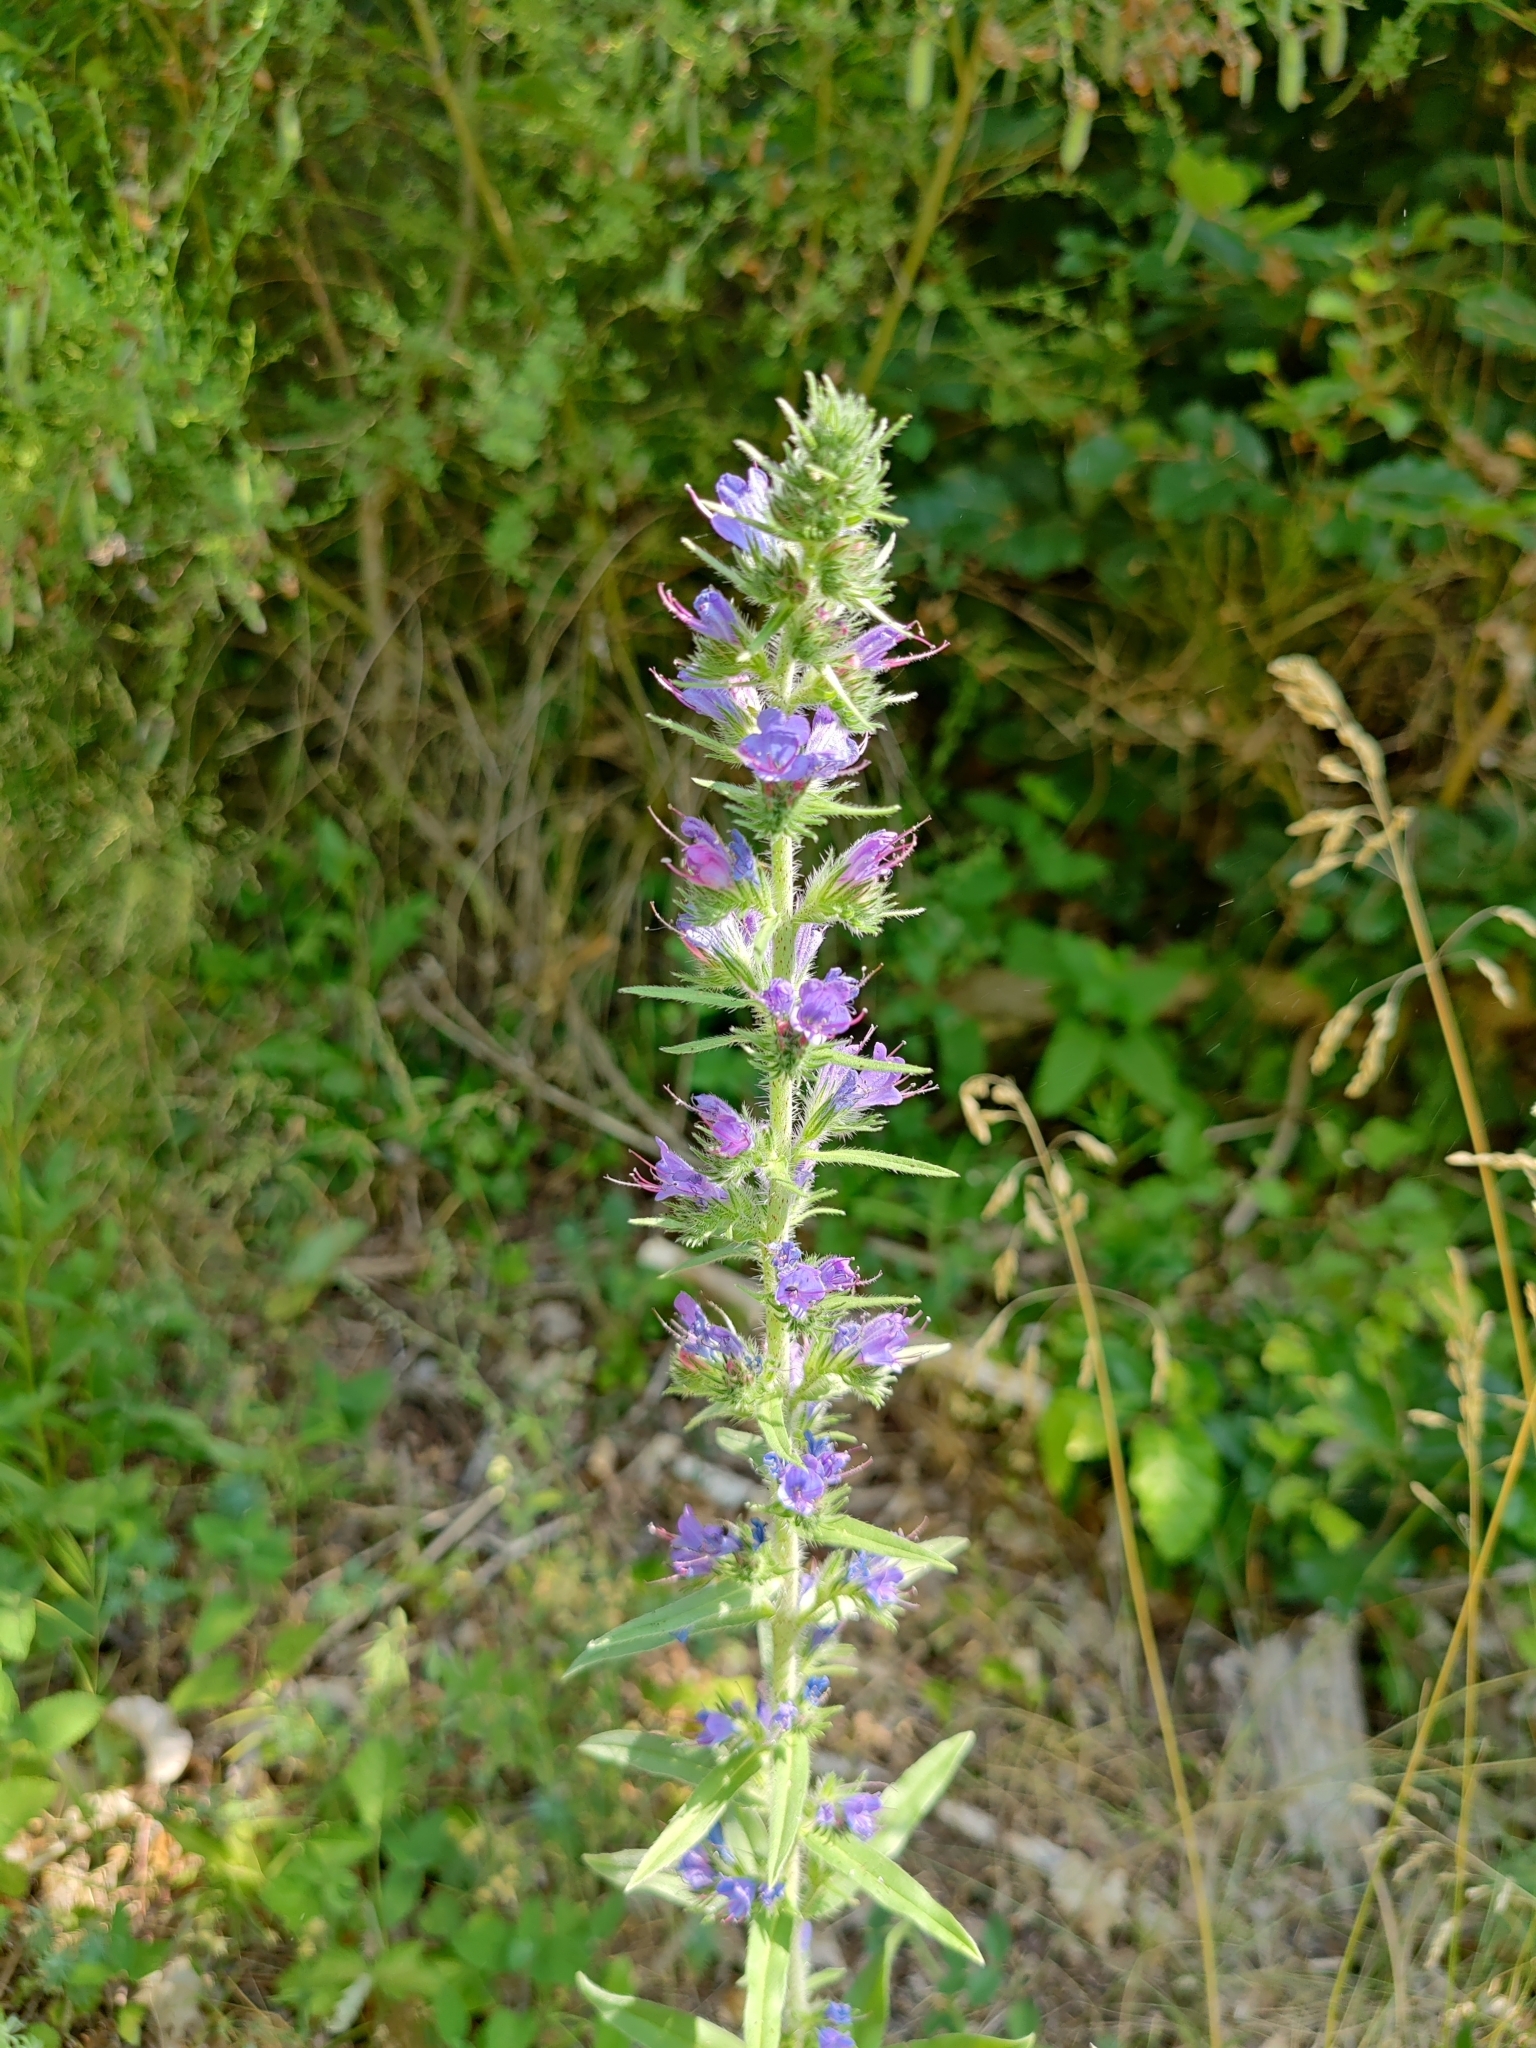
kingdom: Plantae
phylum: Tracheophyta
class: Magnoliopsida
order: Boraginales
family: Boraginaceae
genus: Echium
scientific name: Echium vulgare
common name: Common viper's bugloss
